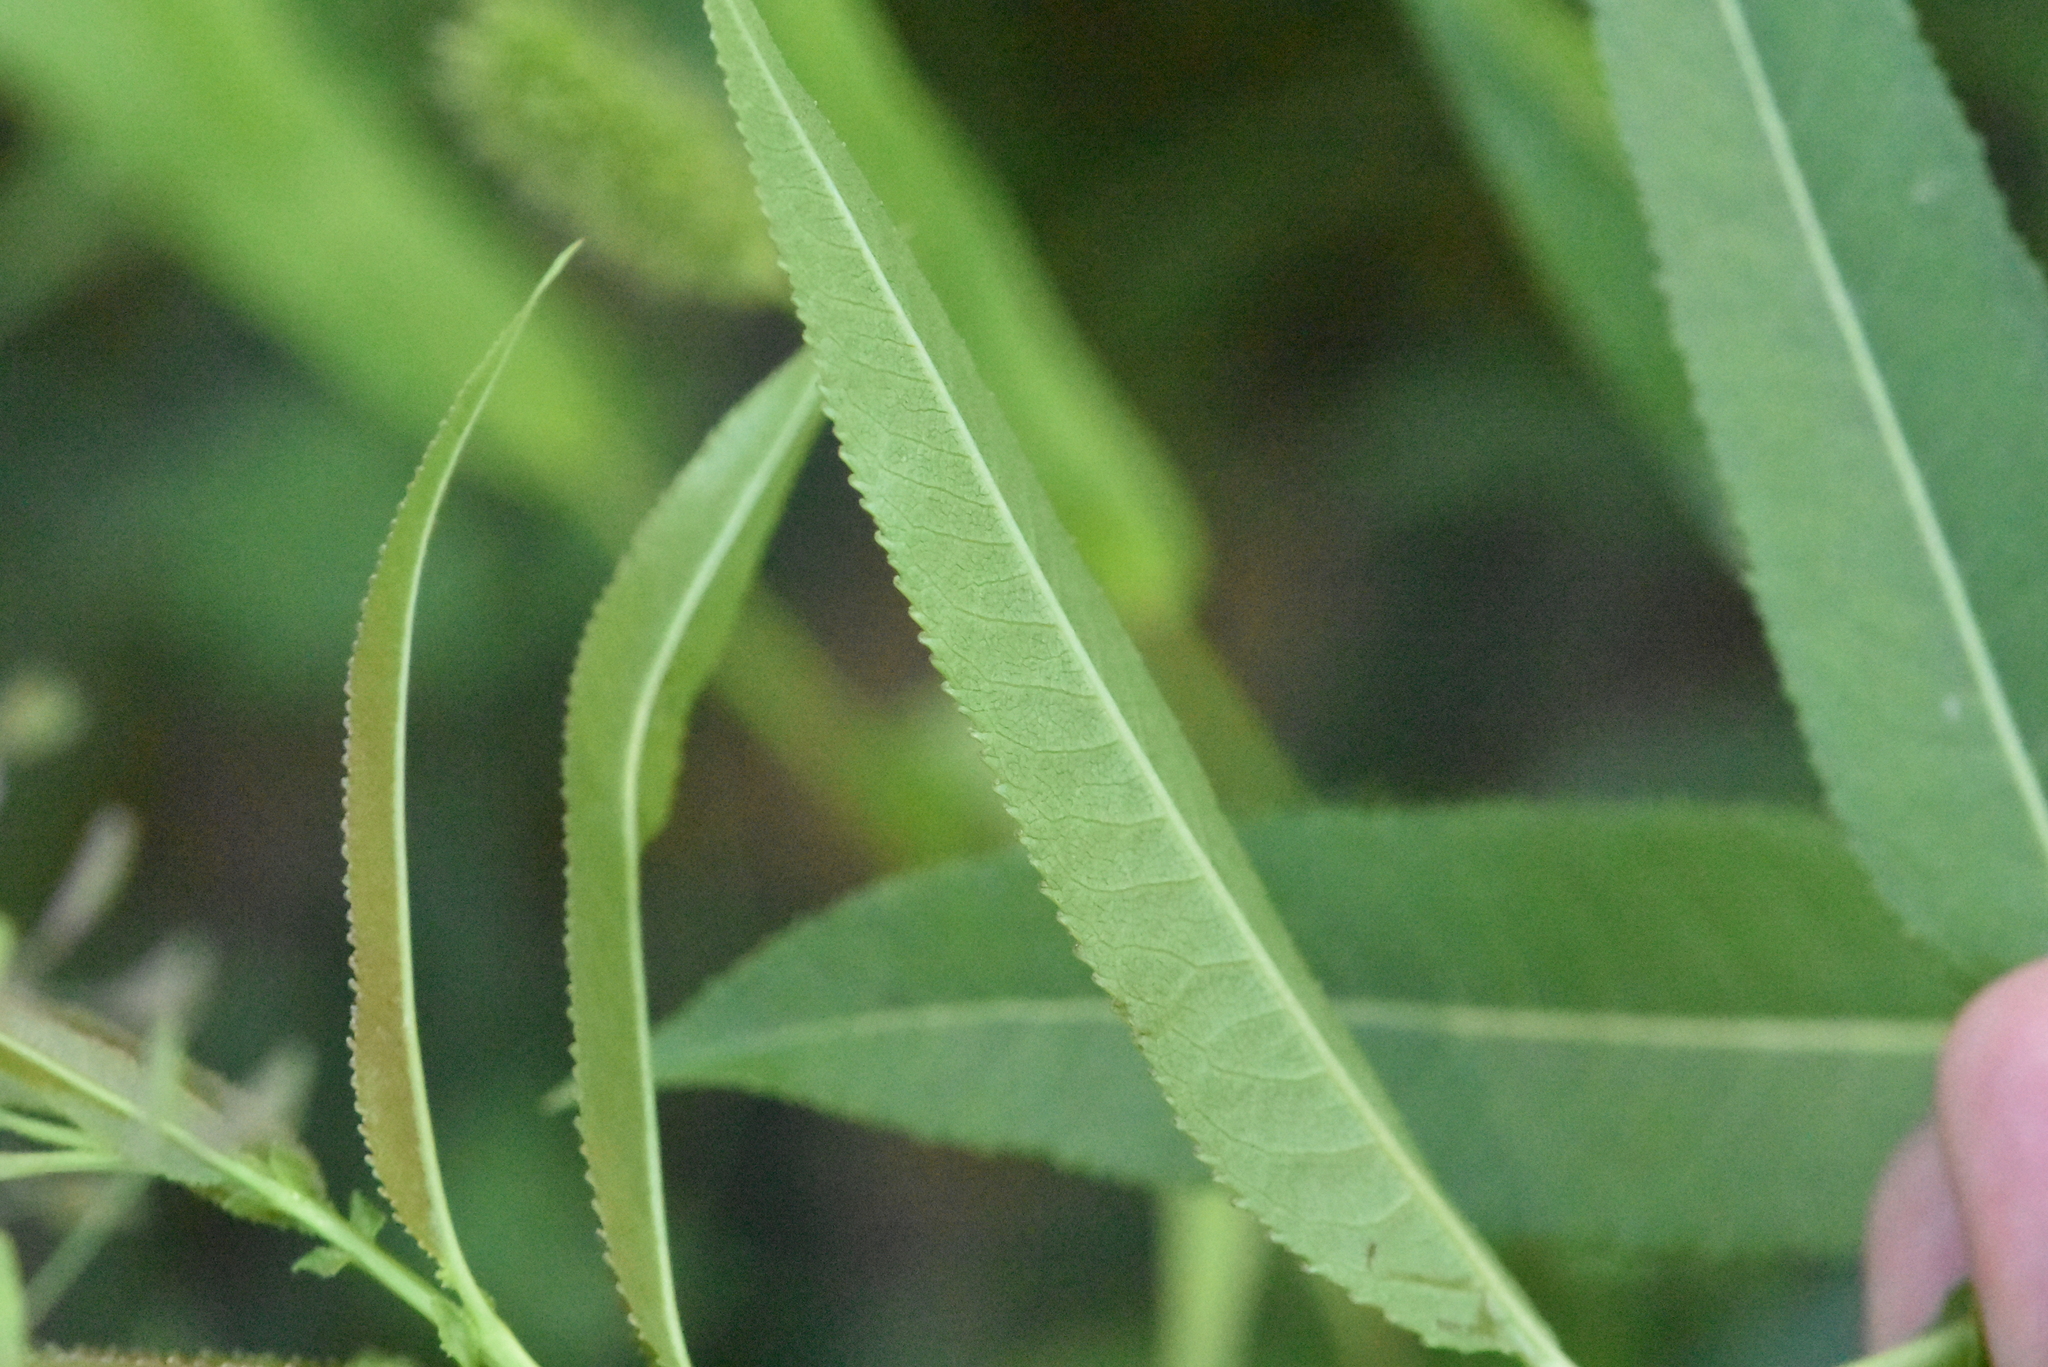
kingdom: Plantae
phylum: Tracheophyta
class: Magnoliopsida
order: Malpighiales
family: Salicaceae
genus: Salix
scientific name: Salix triandra
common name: Almond willow
